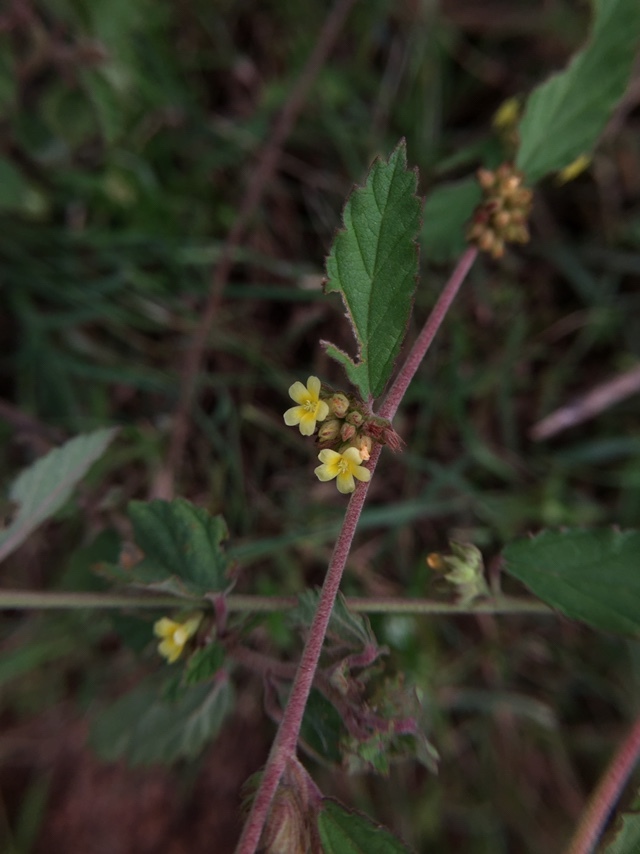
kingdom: Plantae
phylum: Tracheophyta
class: Magnoliopsida
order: Malvales
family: Malvaceae
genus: Waltheria
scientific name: Waltheria indica
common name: Leather-coat
